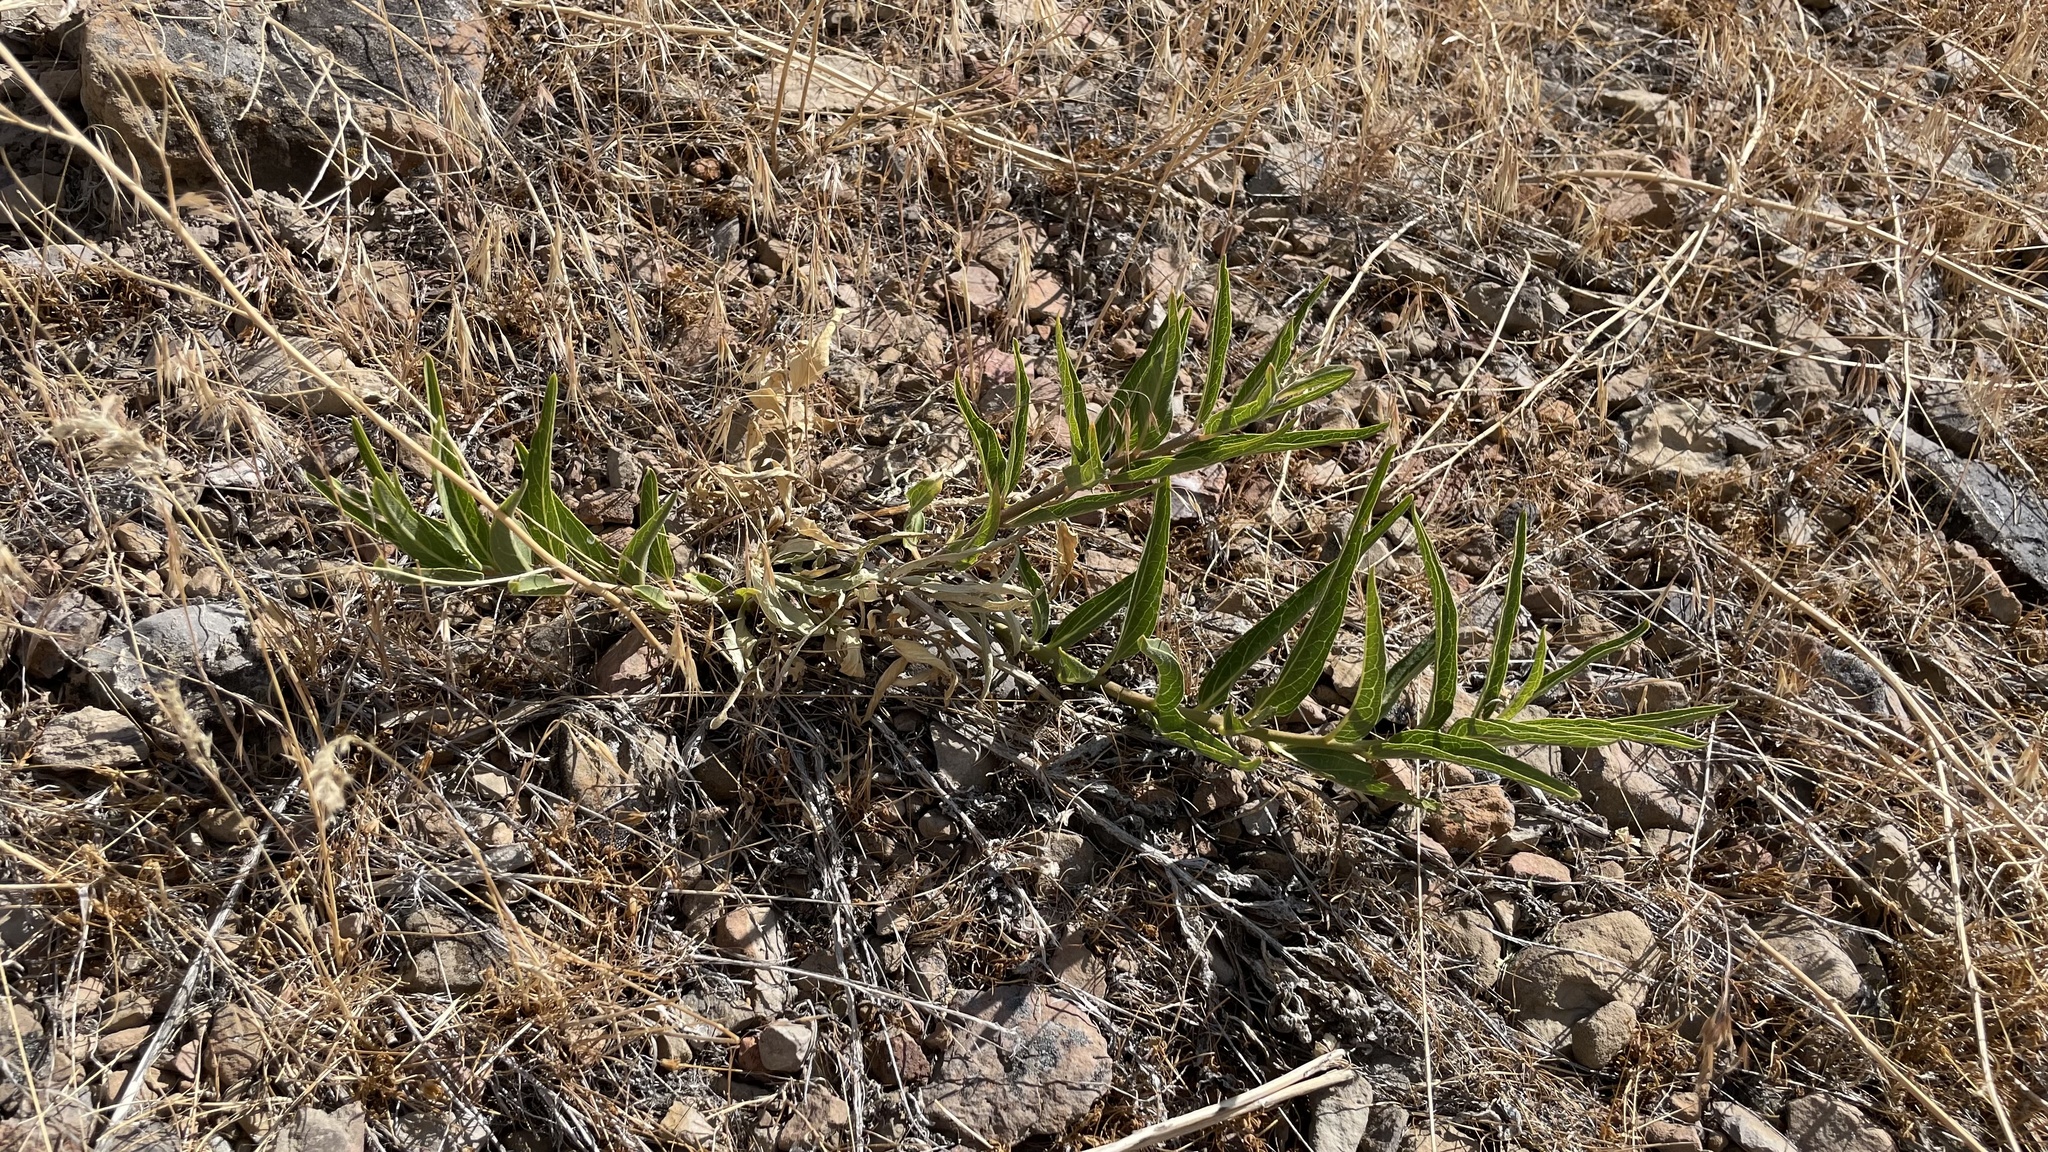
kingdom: Plantae
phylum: Tracheophyta
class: Magnoliopsida
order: Gentianales
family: Apocynaceae
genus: Asclepias
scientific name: Asclepias asperula
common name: Antelope horns
